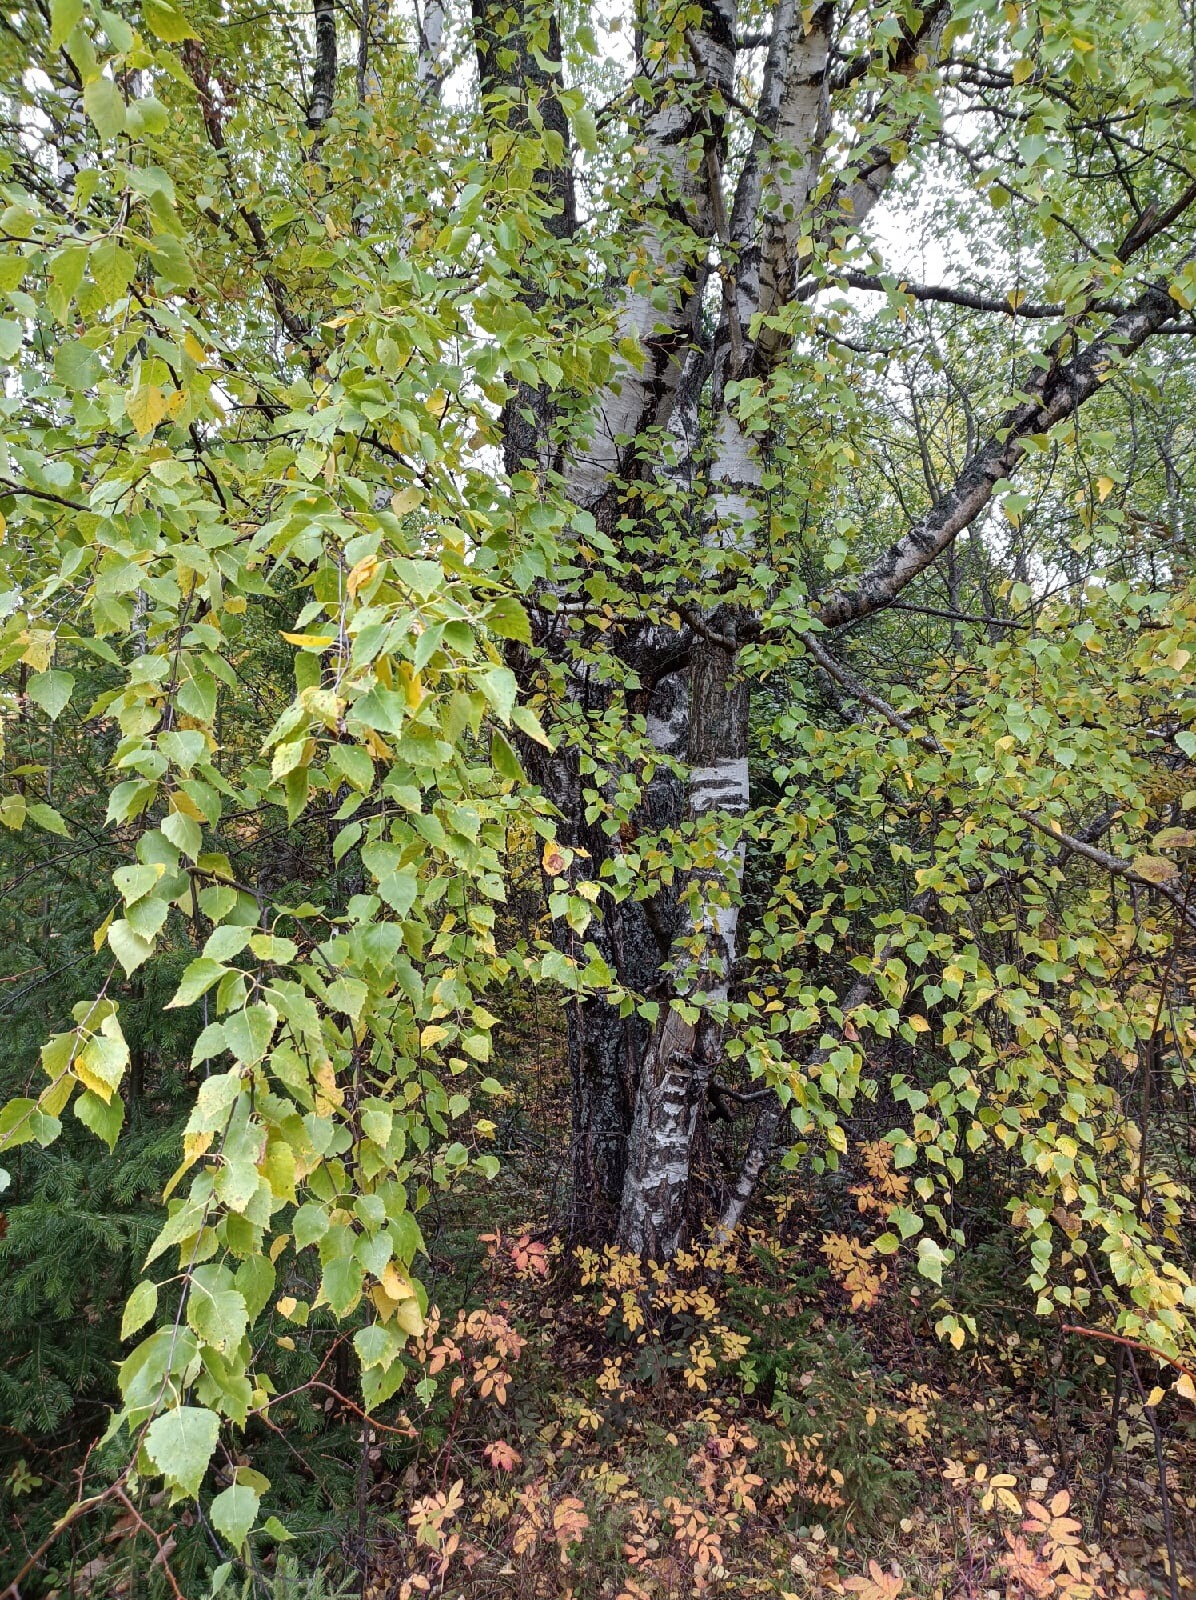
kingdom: Plantae
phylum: Tracheophyta
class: Magnoliopsida
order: Fagales
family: Betulaceae
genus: Betula
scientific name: Betula pendula
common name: Silver birch
